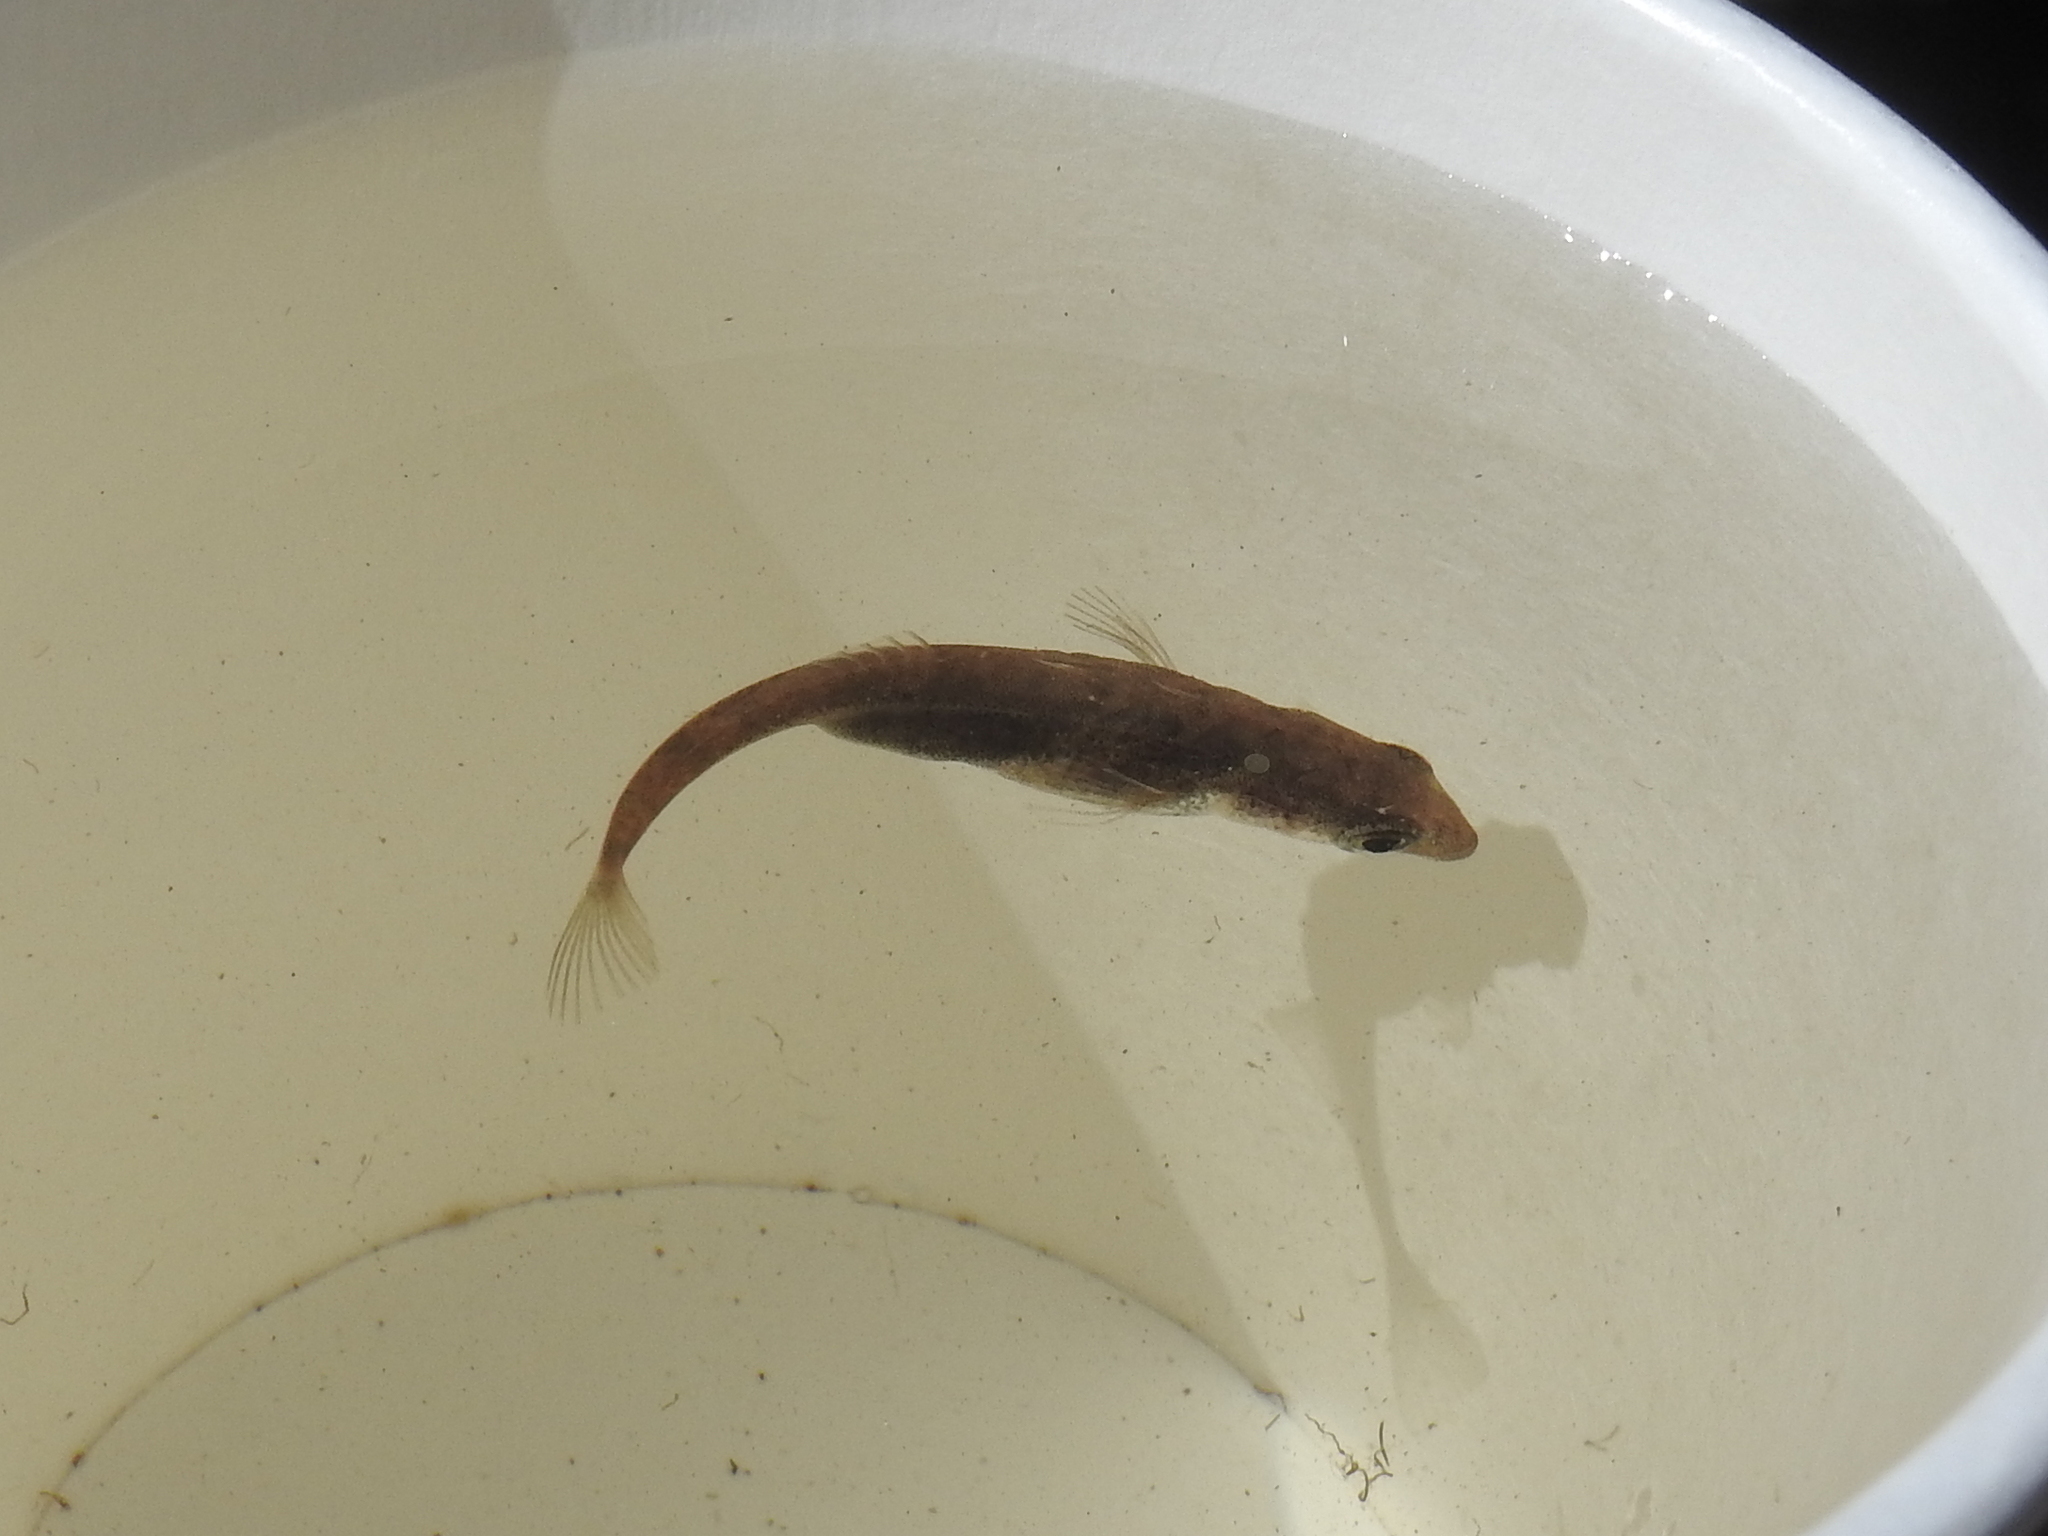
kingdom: Animalia
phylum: Chordata
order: Gasterosteiformes
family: Gasterosteidae
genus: Gasterosteus
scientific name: Gasterosteus aculeatus
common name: Three-spined stickleback
